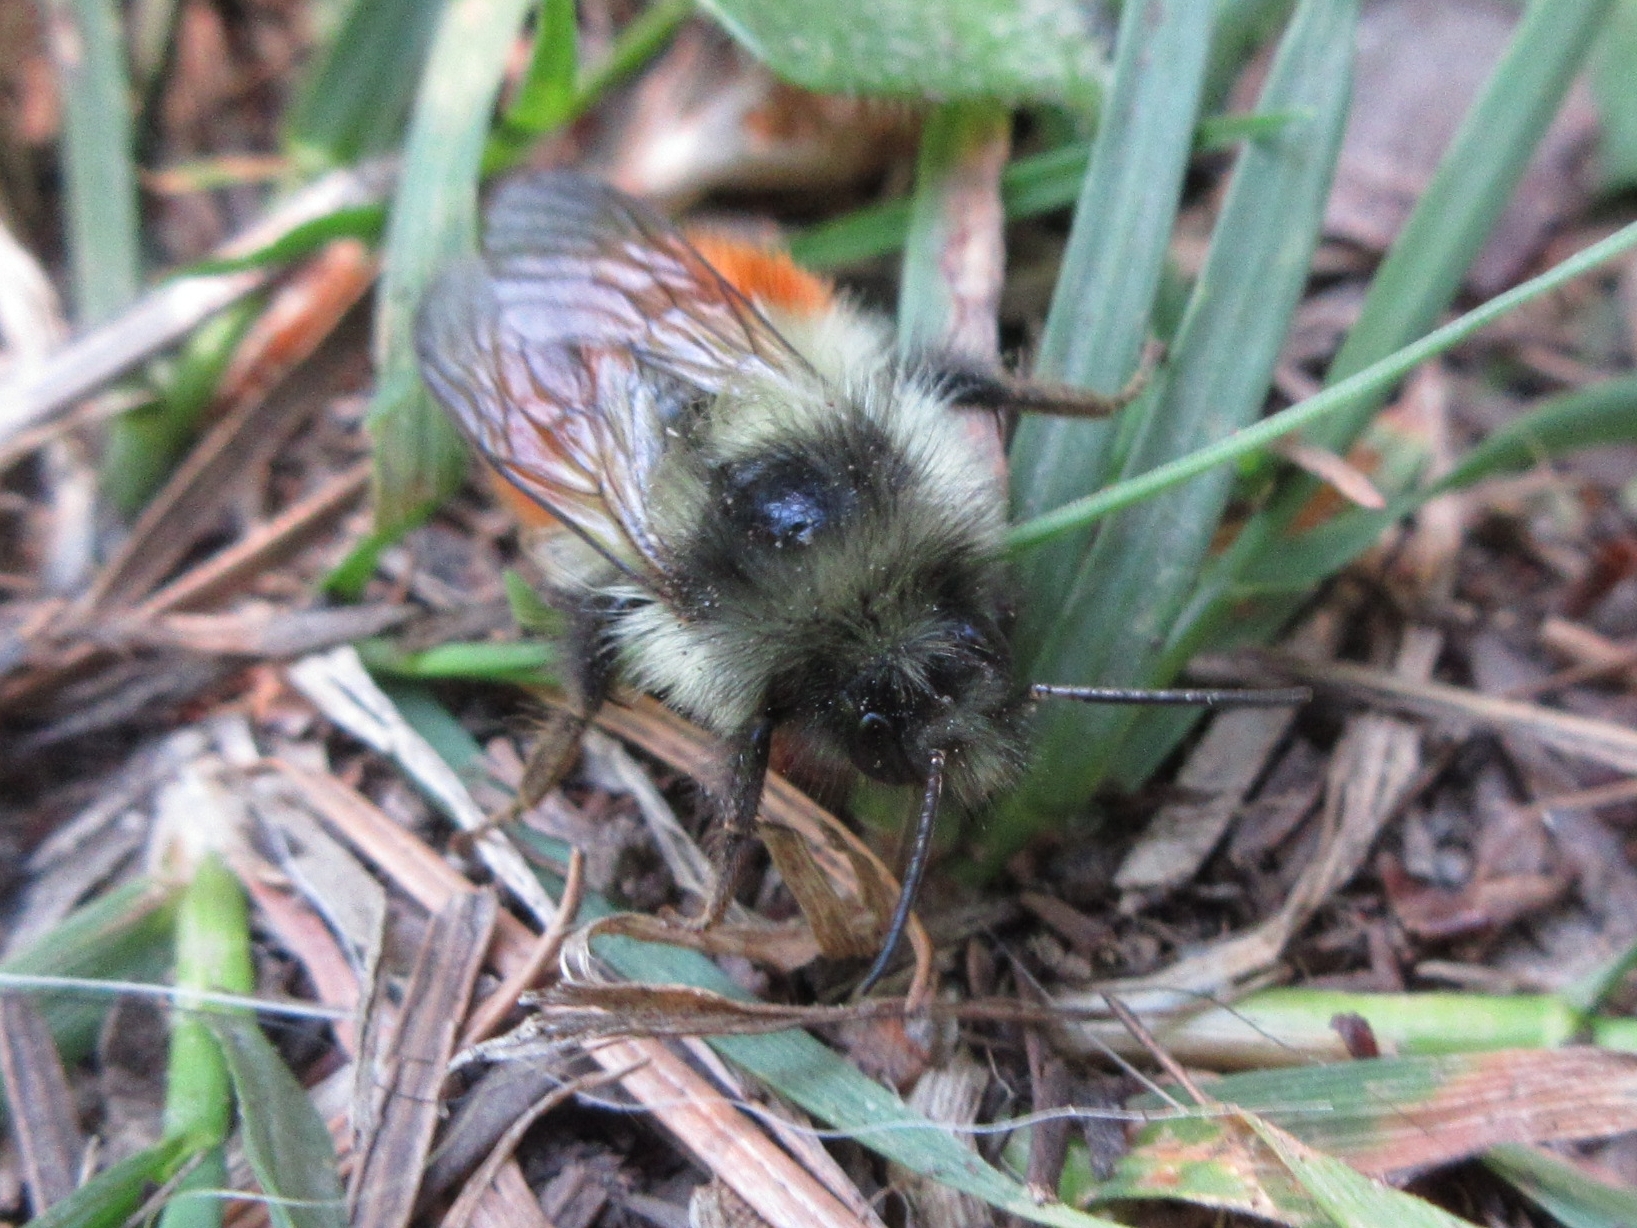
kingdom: Animalia
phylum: Arthropoda
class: Insecta
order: Hymenoptera
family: Apidae
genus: Bombus
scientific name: Bombus melanopygus
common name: Black tail bumble bee
